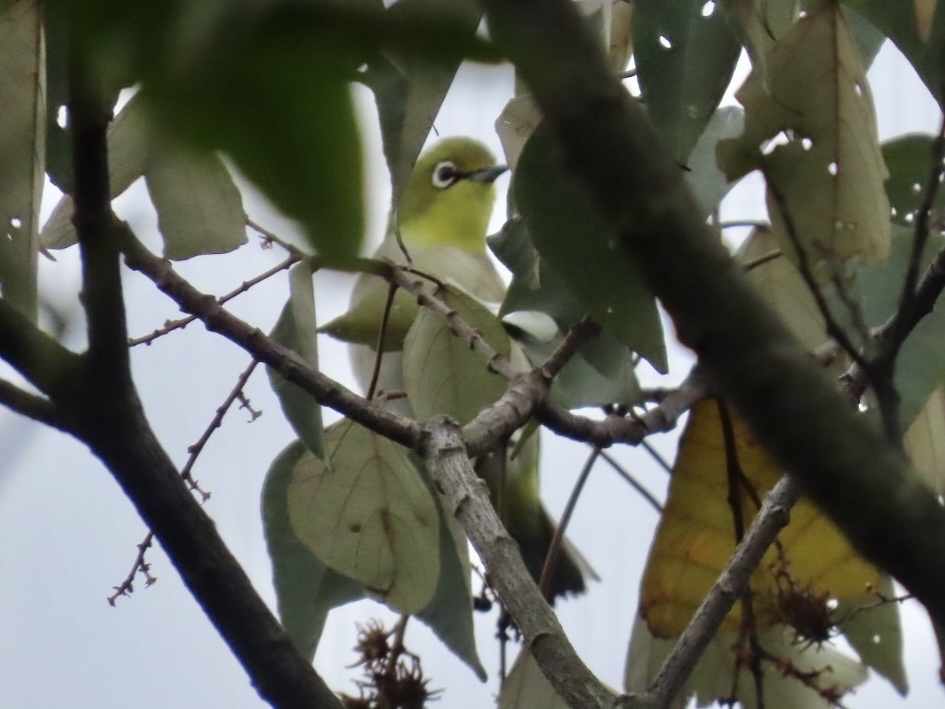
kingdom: Animalia
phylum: Chordata
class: Aves
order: Passeriformes
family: Zosteropidae
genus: Zosterops
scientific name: Zosterops simplex
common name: Swinhoe's white-eye
